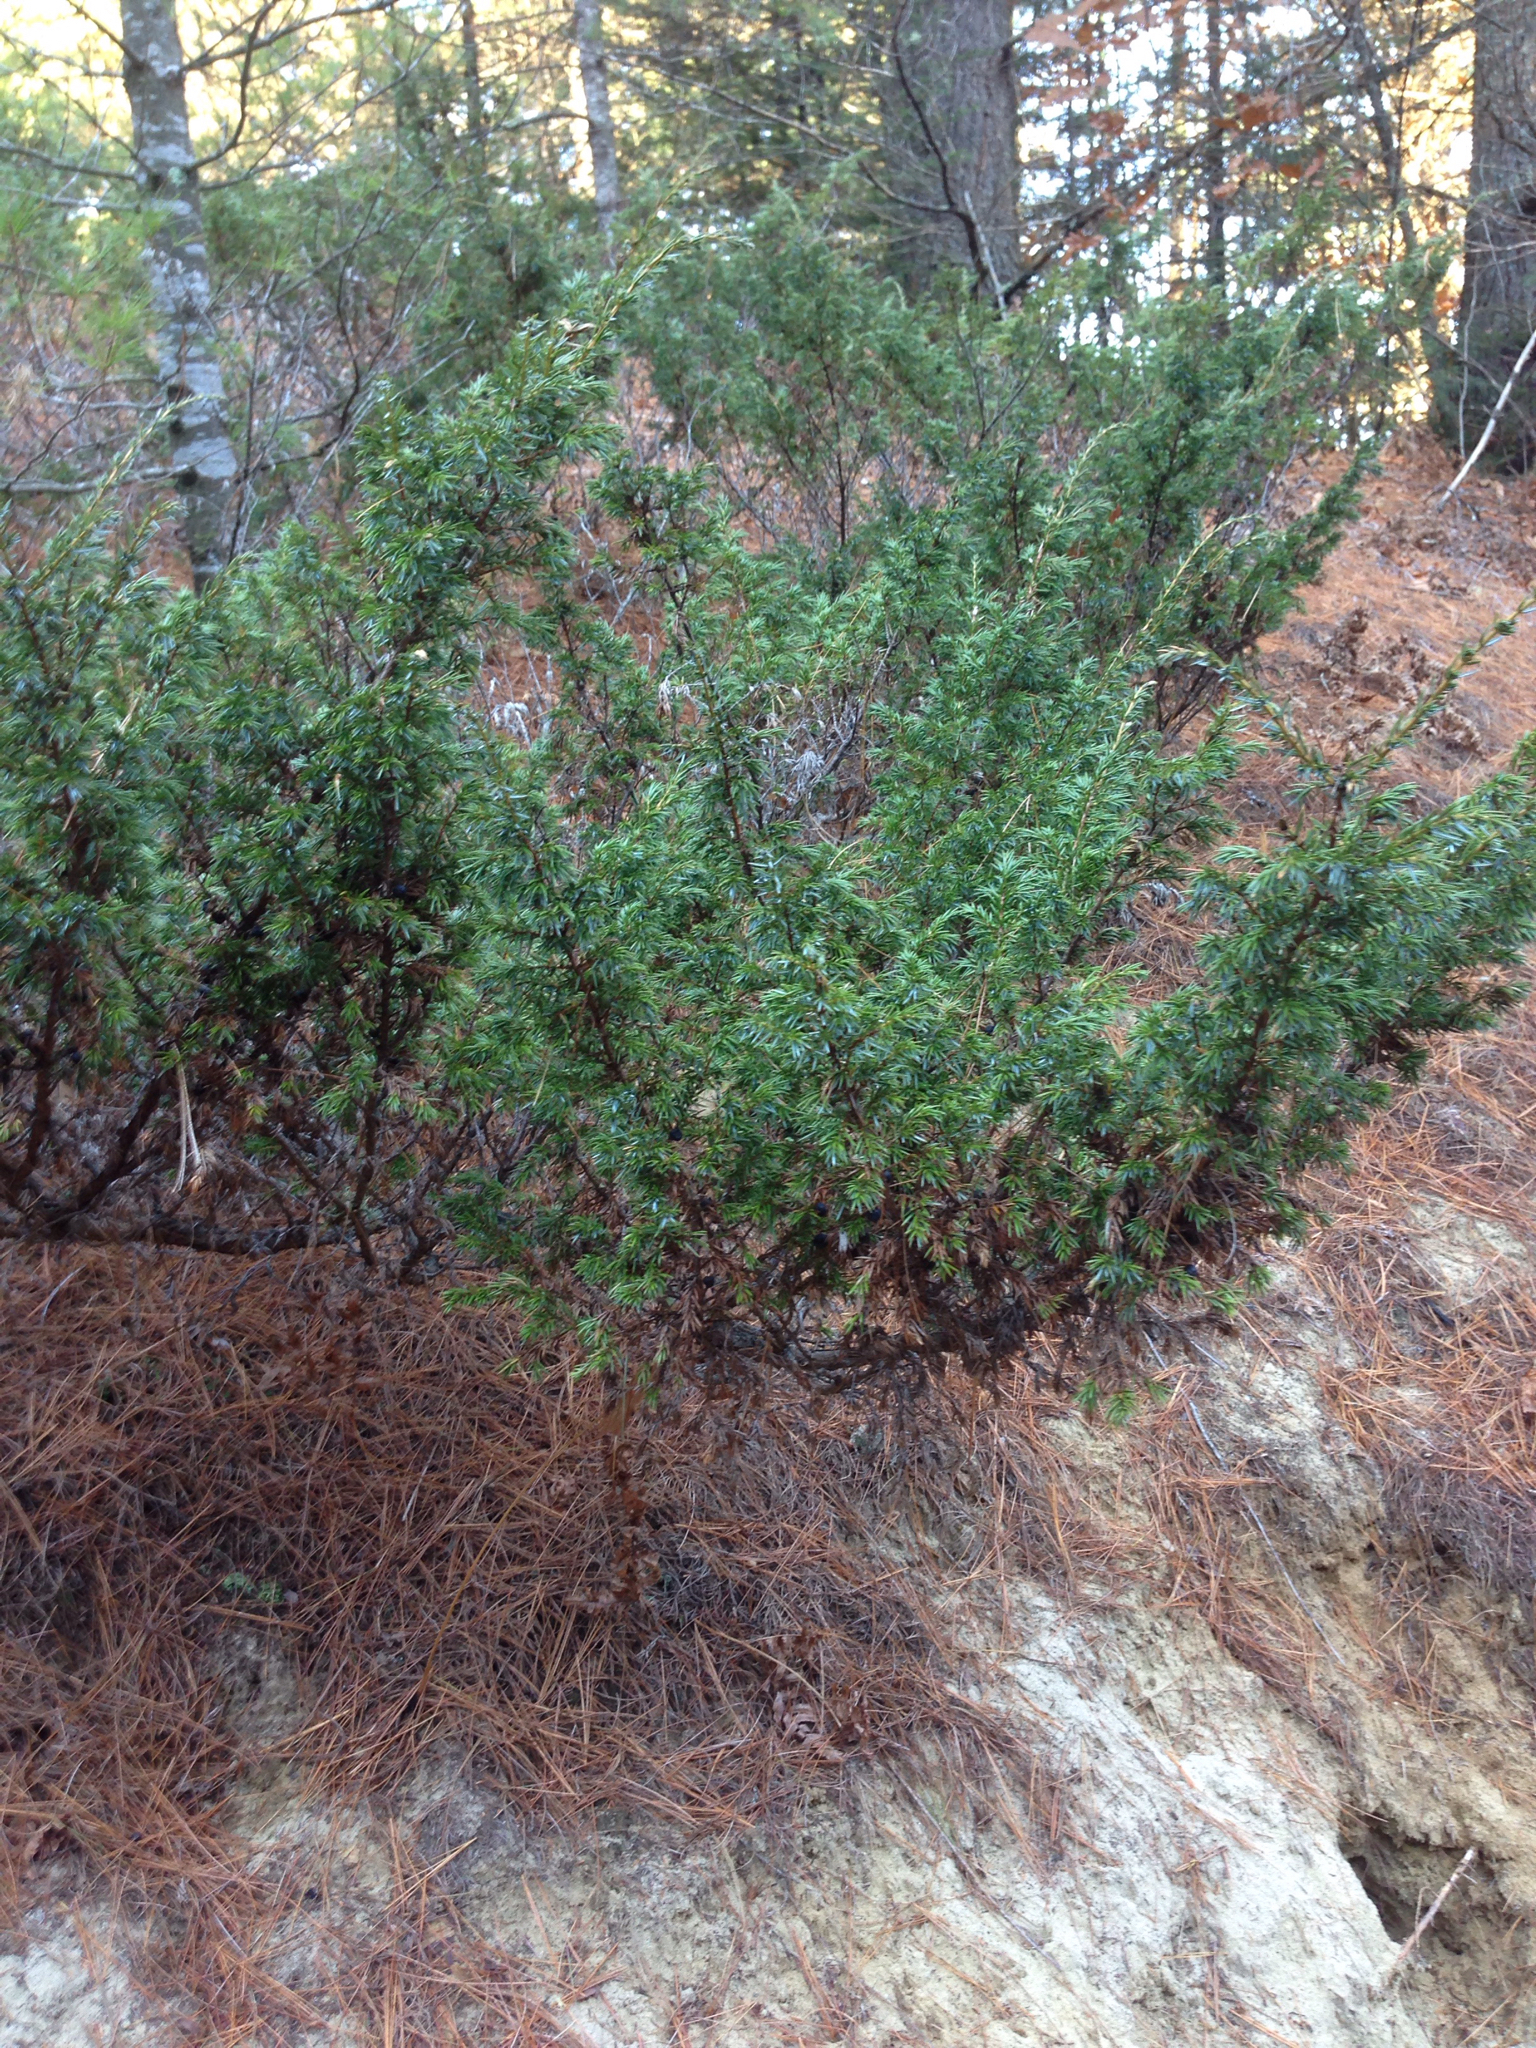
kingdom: Plantae
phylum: Tracheophyta
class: Pinopsida
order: Pinales
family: Cupressaceae
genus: Juniperus
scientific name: Juniperus communis
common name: Common juniper
